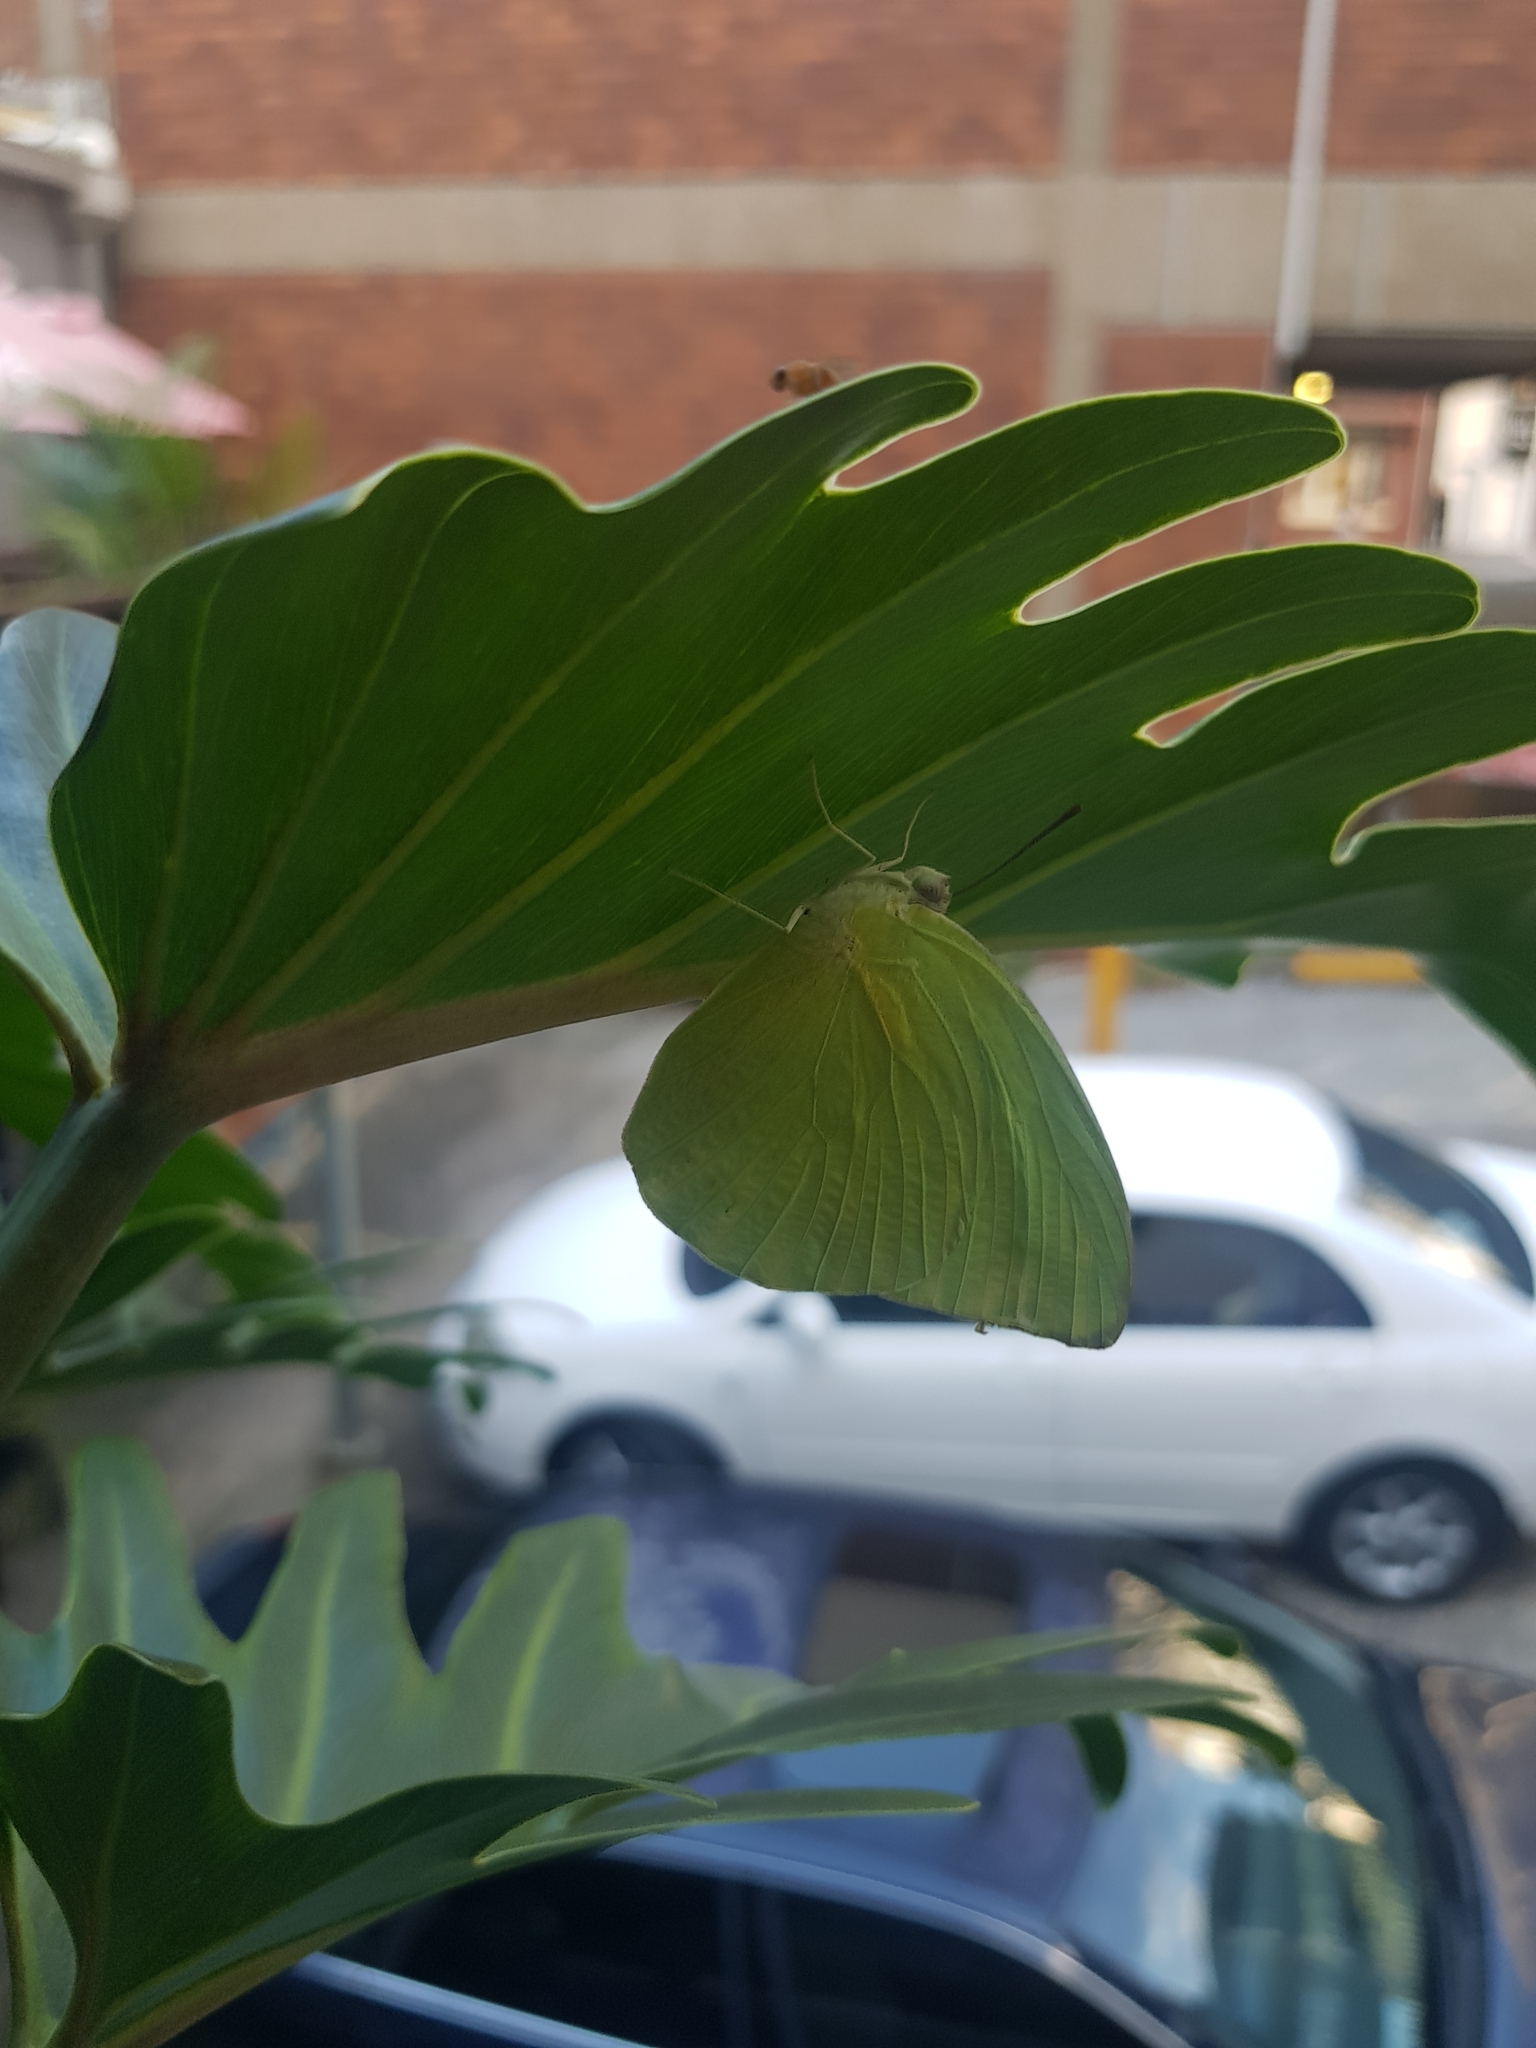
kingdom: Animalia
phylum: Arthropoda
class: Insecta
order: Lepidoptera
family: Pieridae
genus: Catopsilia
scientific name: Catopsilia pomona
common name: Common emigrant
